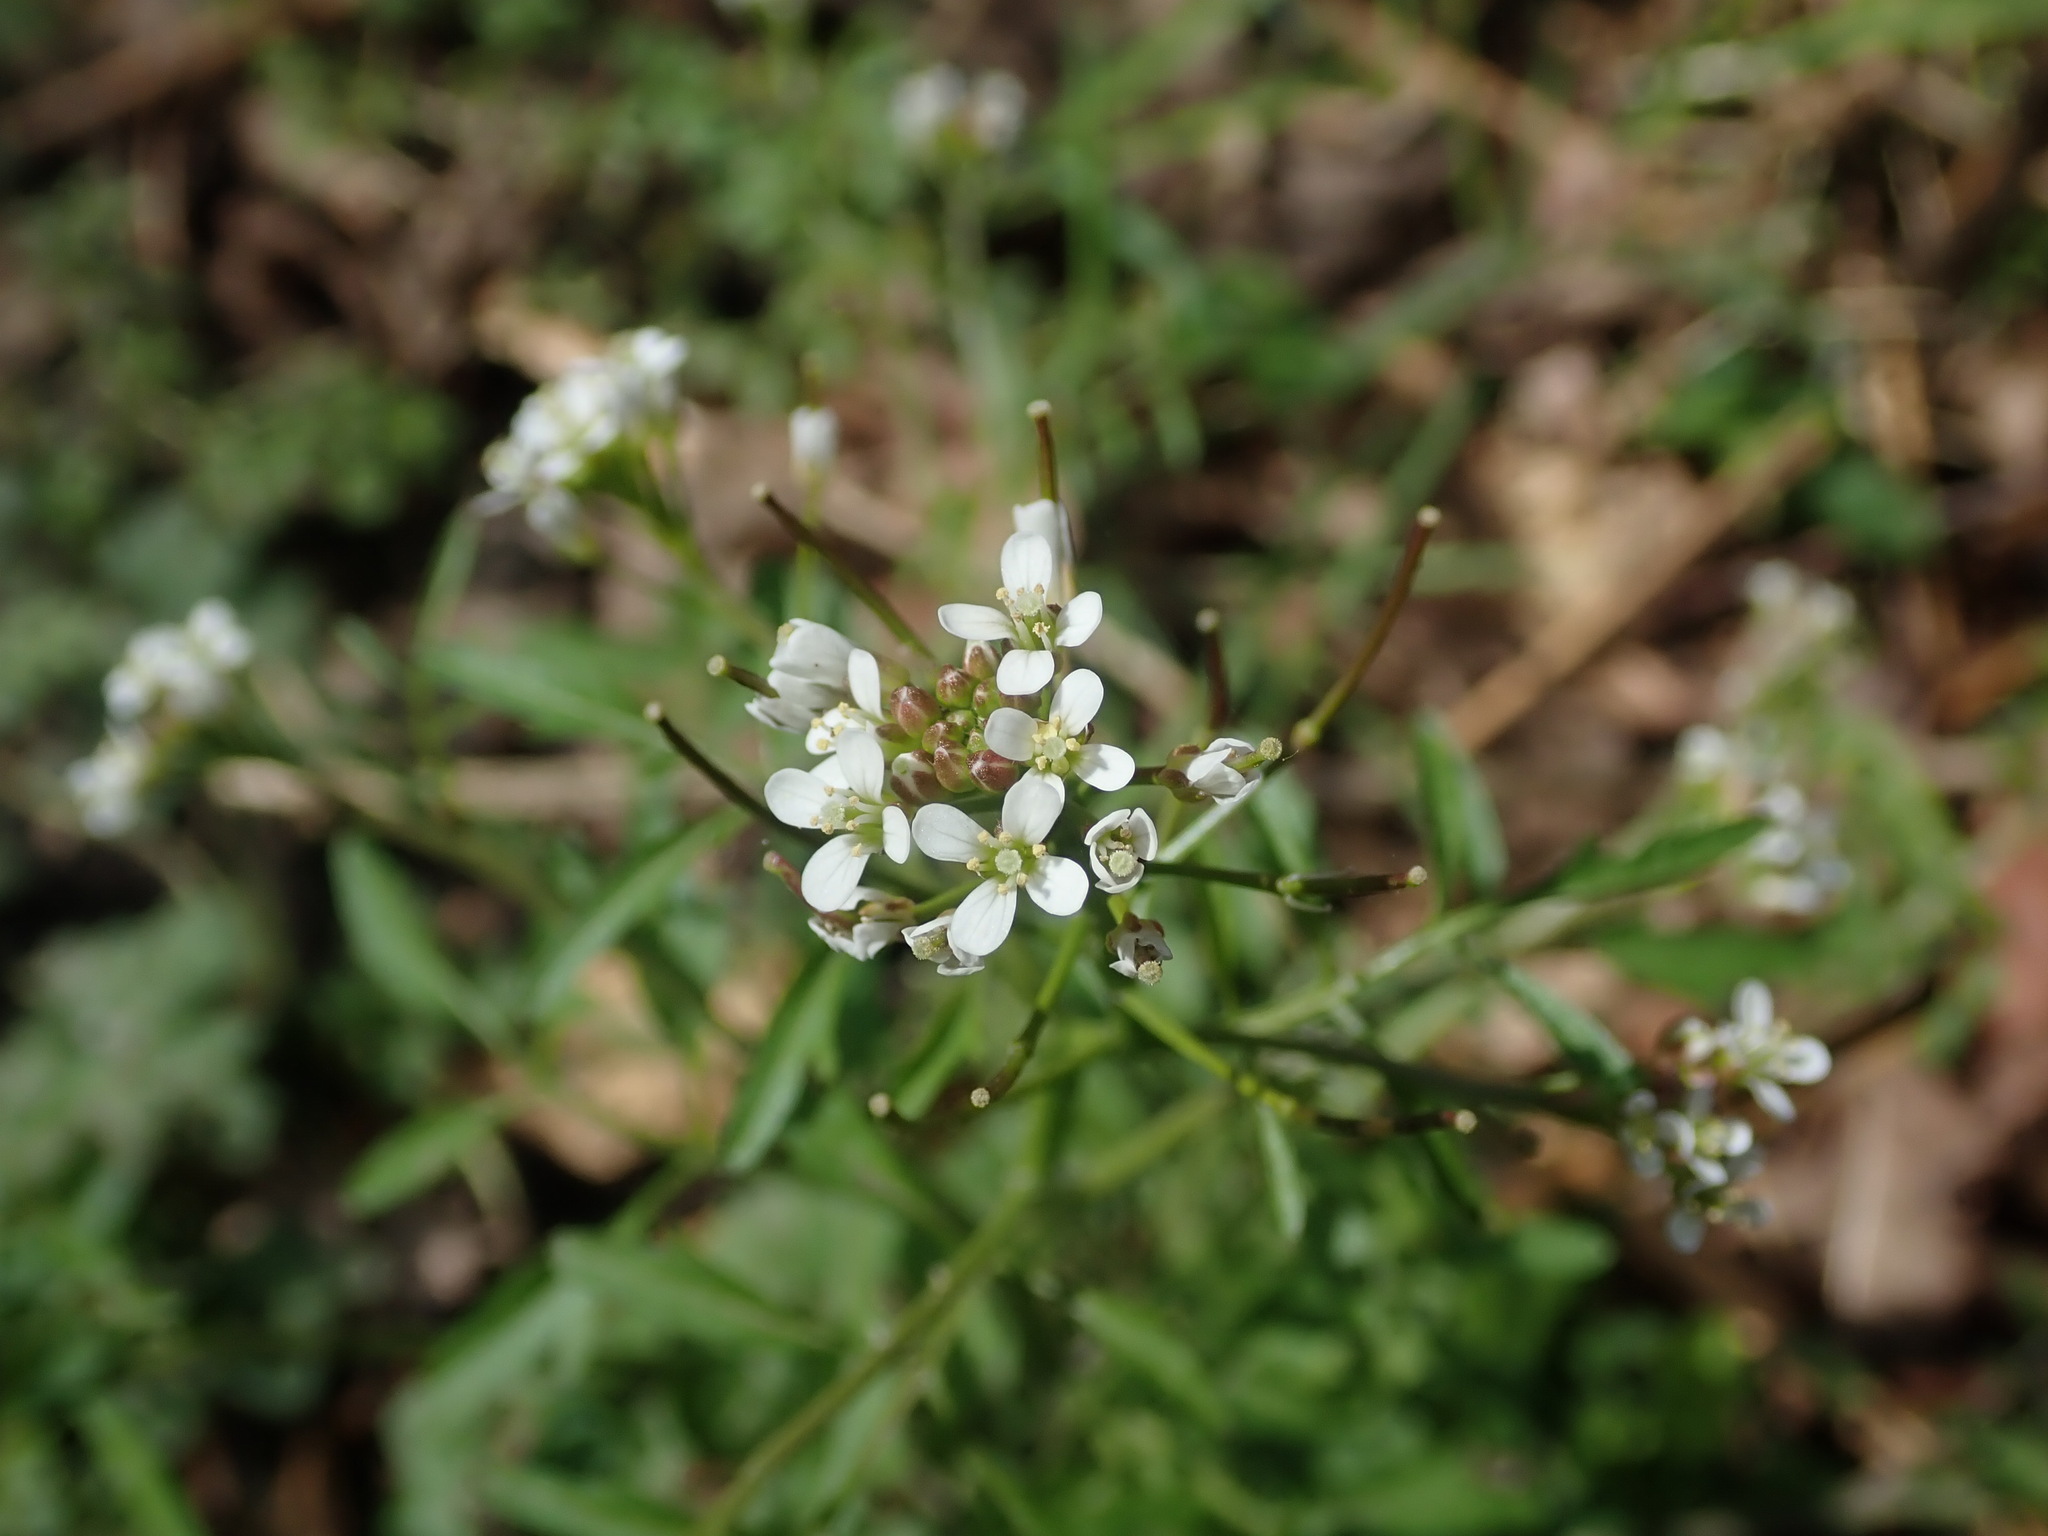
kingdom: Plantae
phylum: Tracheophyta
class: Magnoliopsida
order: Brassicales
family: Brassicaceae
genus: Cardamine
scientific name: Cardamine flexuosa
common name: Woodland bittercress
